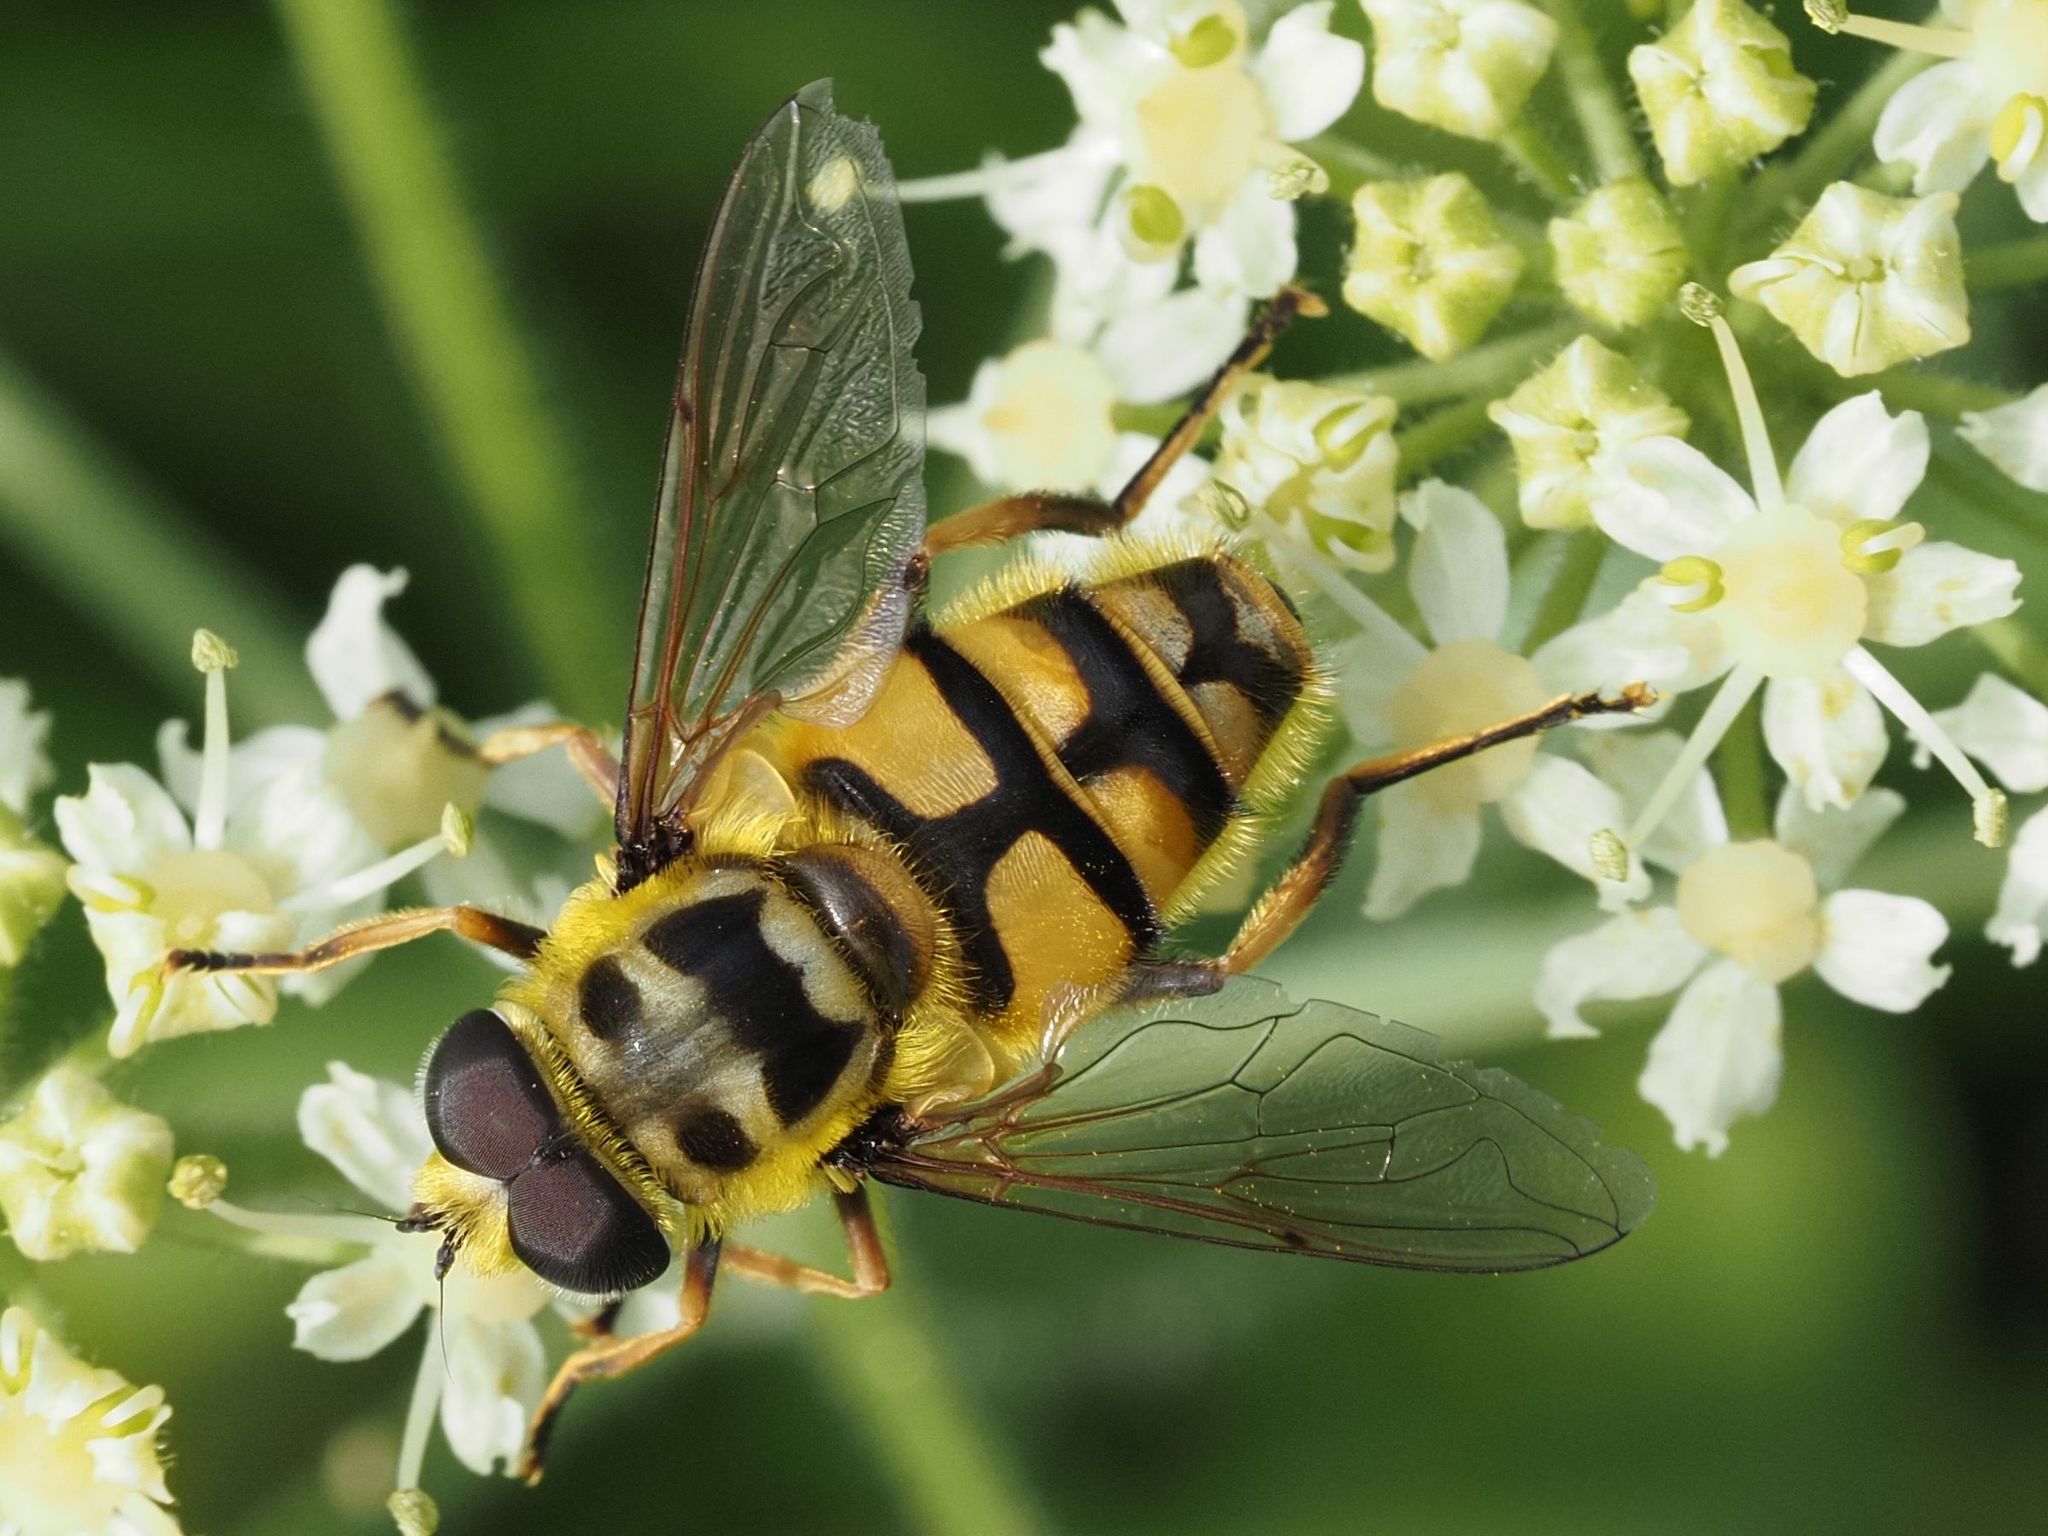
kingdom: Animalia
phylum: Arthropoda
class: Insecta
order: Diptera
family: Syrphidae
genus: Myathropa
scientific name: Myathropa florea
